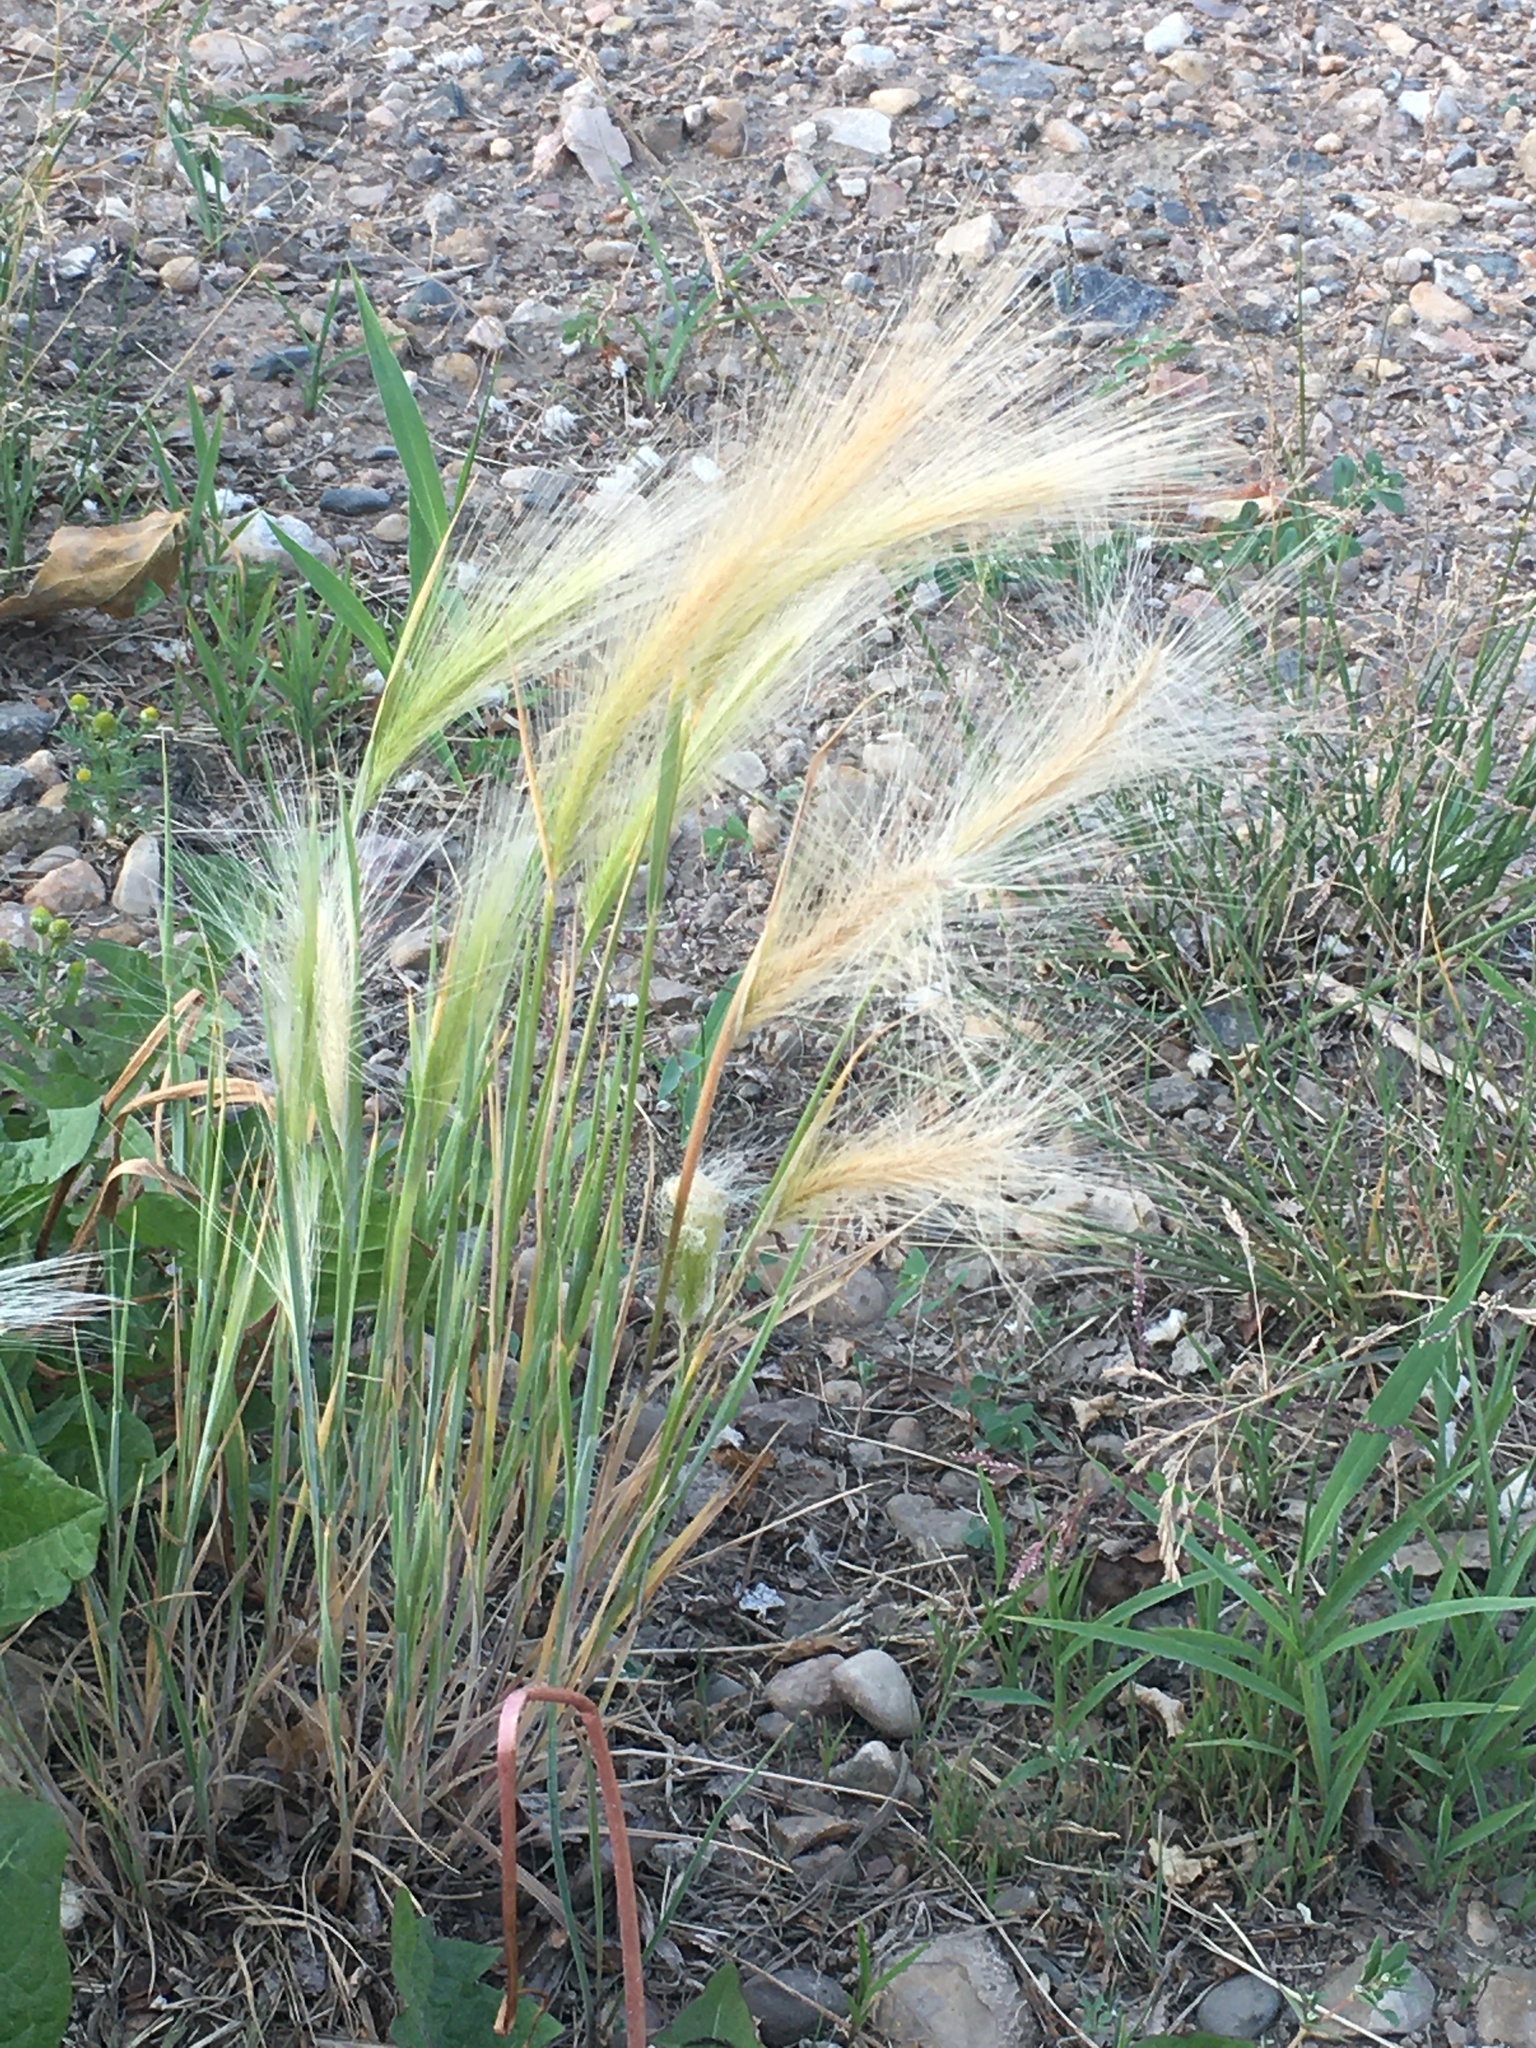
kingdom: Plantae
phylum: Tracheophyta
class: Liliopsida
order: Poales
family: Poaceae
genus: Hordeum
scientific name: Hordeum jubatum
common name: Foxtail barley
